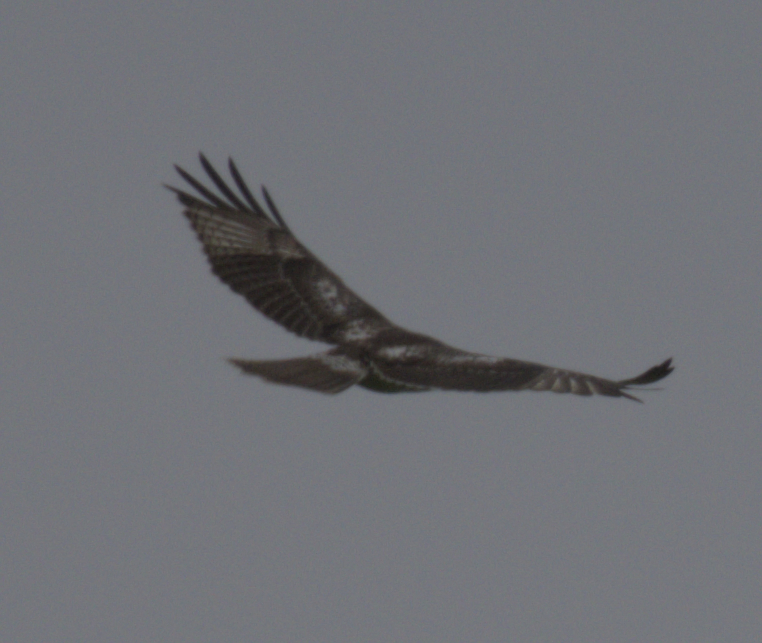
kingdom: Animalia
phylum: Chordata
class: Aves
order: Accipitriformes
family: Accipitridae
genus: Buteo
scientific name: Buteo jamaicensis
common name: Red-tailed hawk
